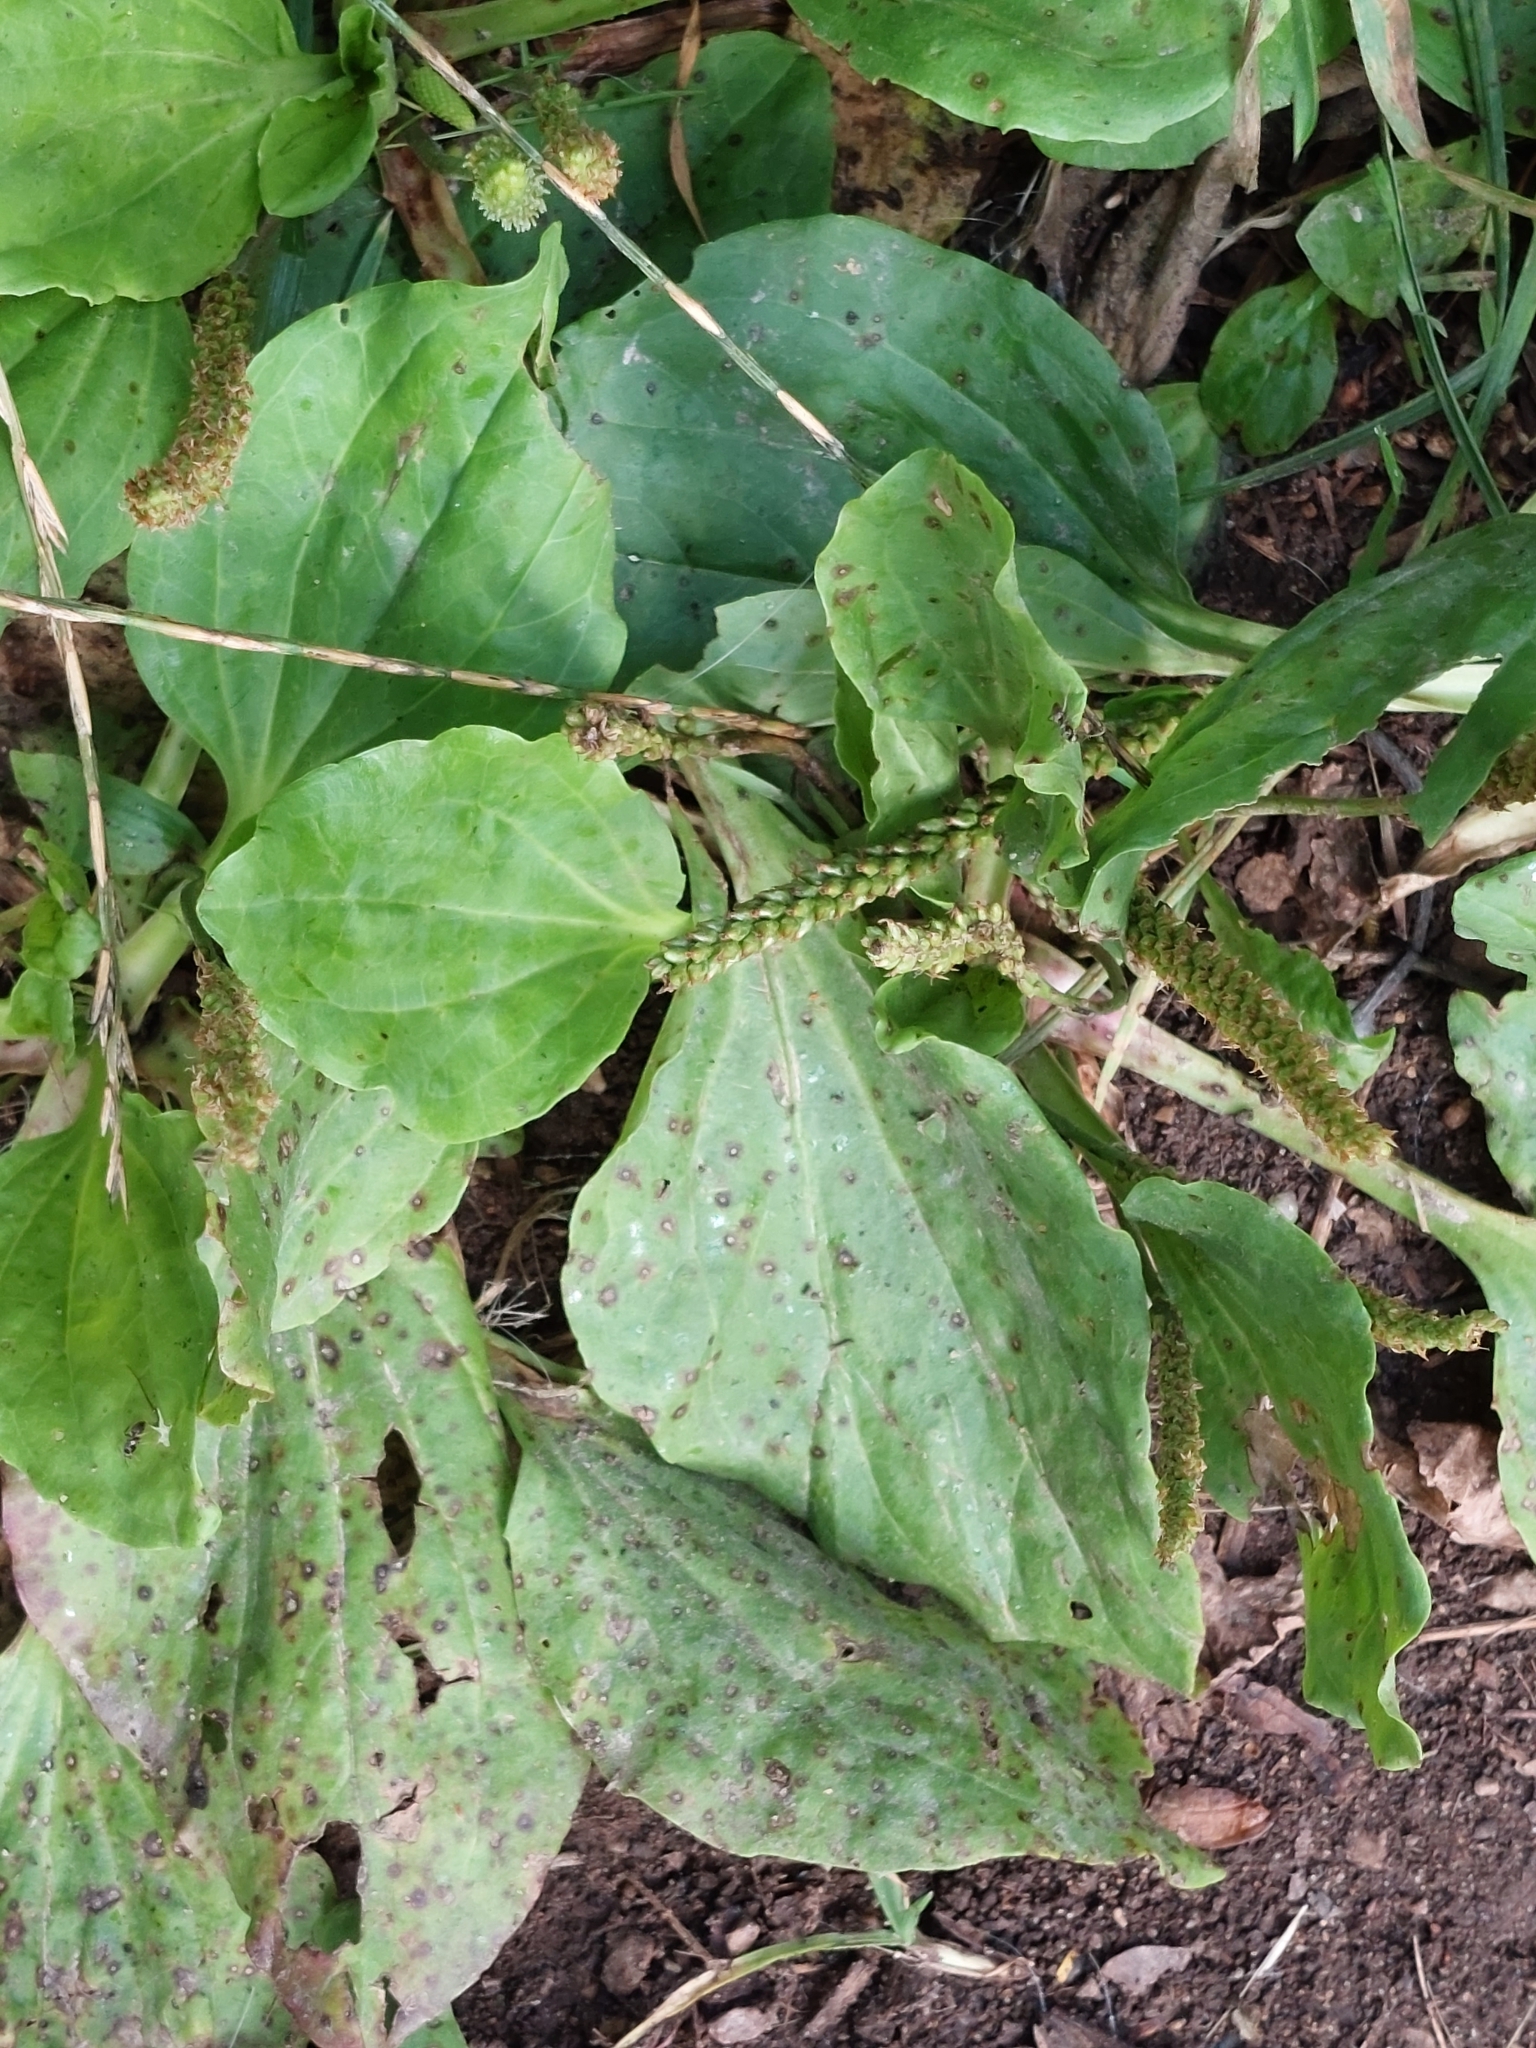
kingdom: Plantae
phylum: Tracheophyta
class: Magnoliopsida
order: Lamiales
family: Plantaginaceae
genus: Plantago
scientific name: Plantago major
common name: Common plantain
